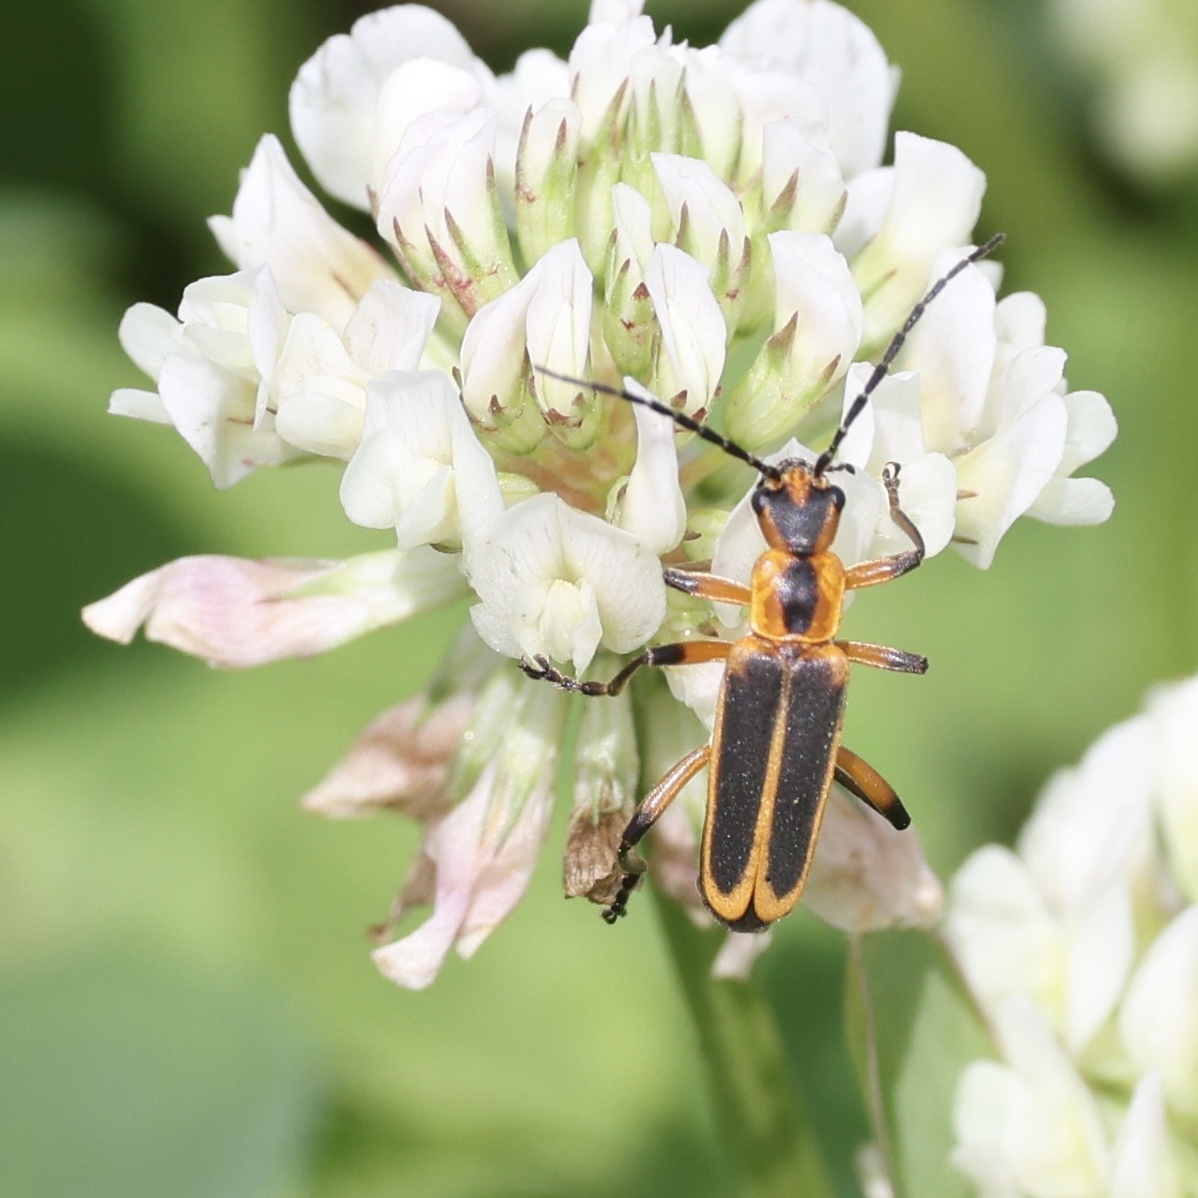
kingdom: Animalia
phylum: Arthropoda
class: Insecta
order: Coleoptera
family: Cantharidae
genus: Chauliognathus
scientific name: Chauliognathus marginatus
